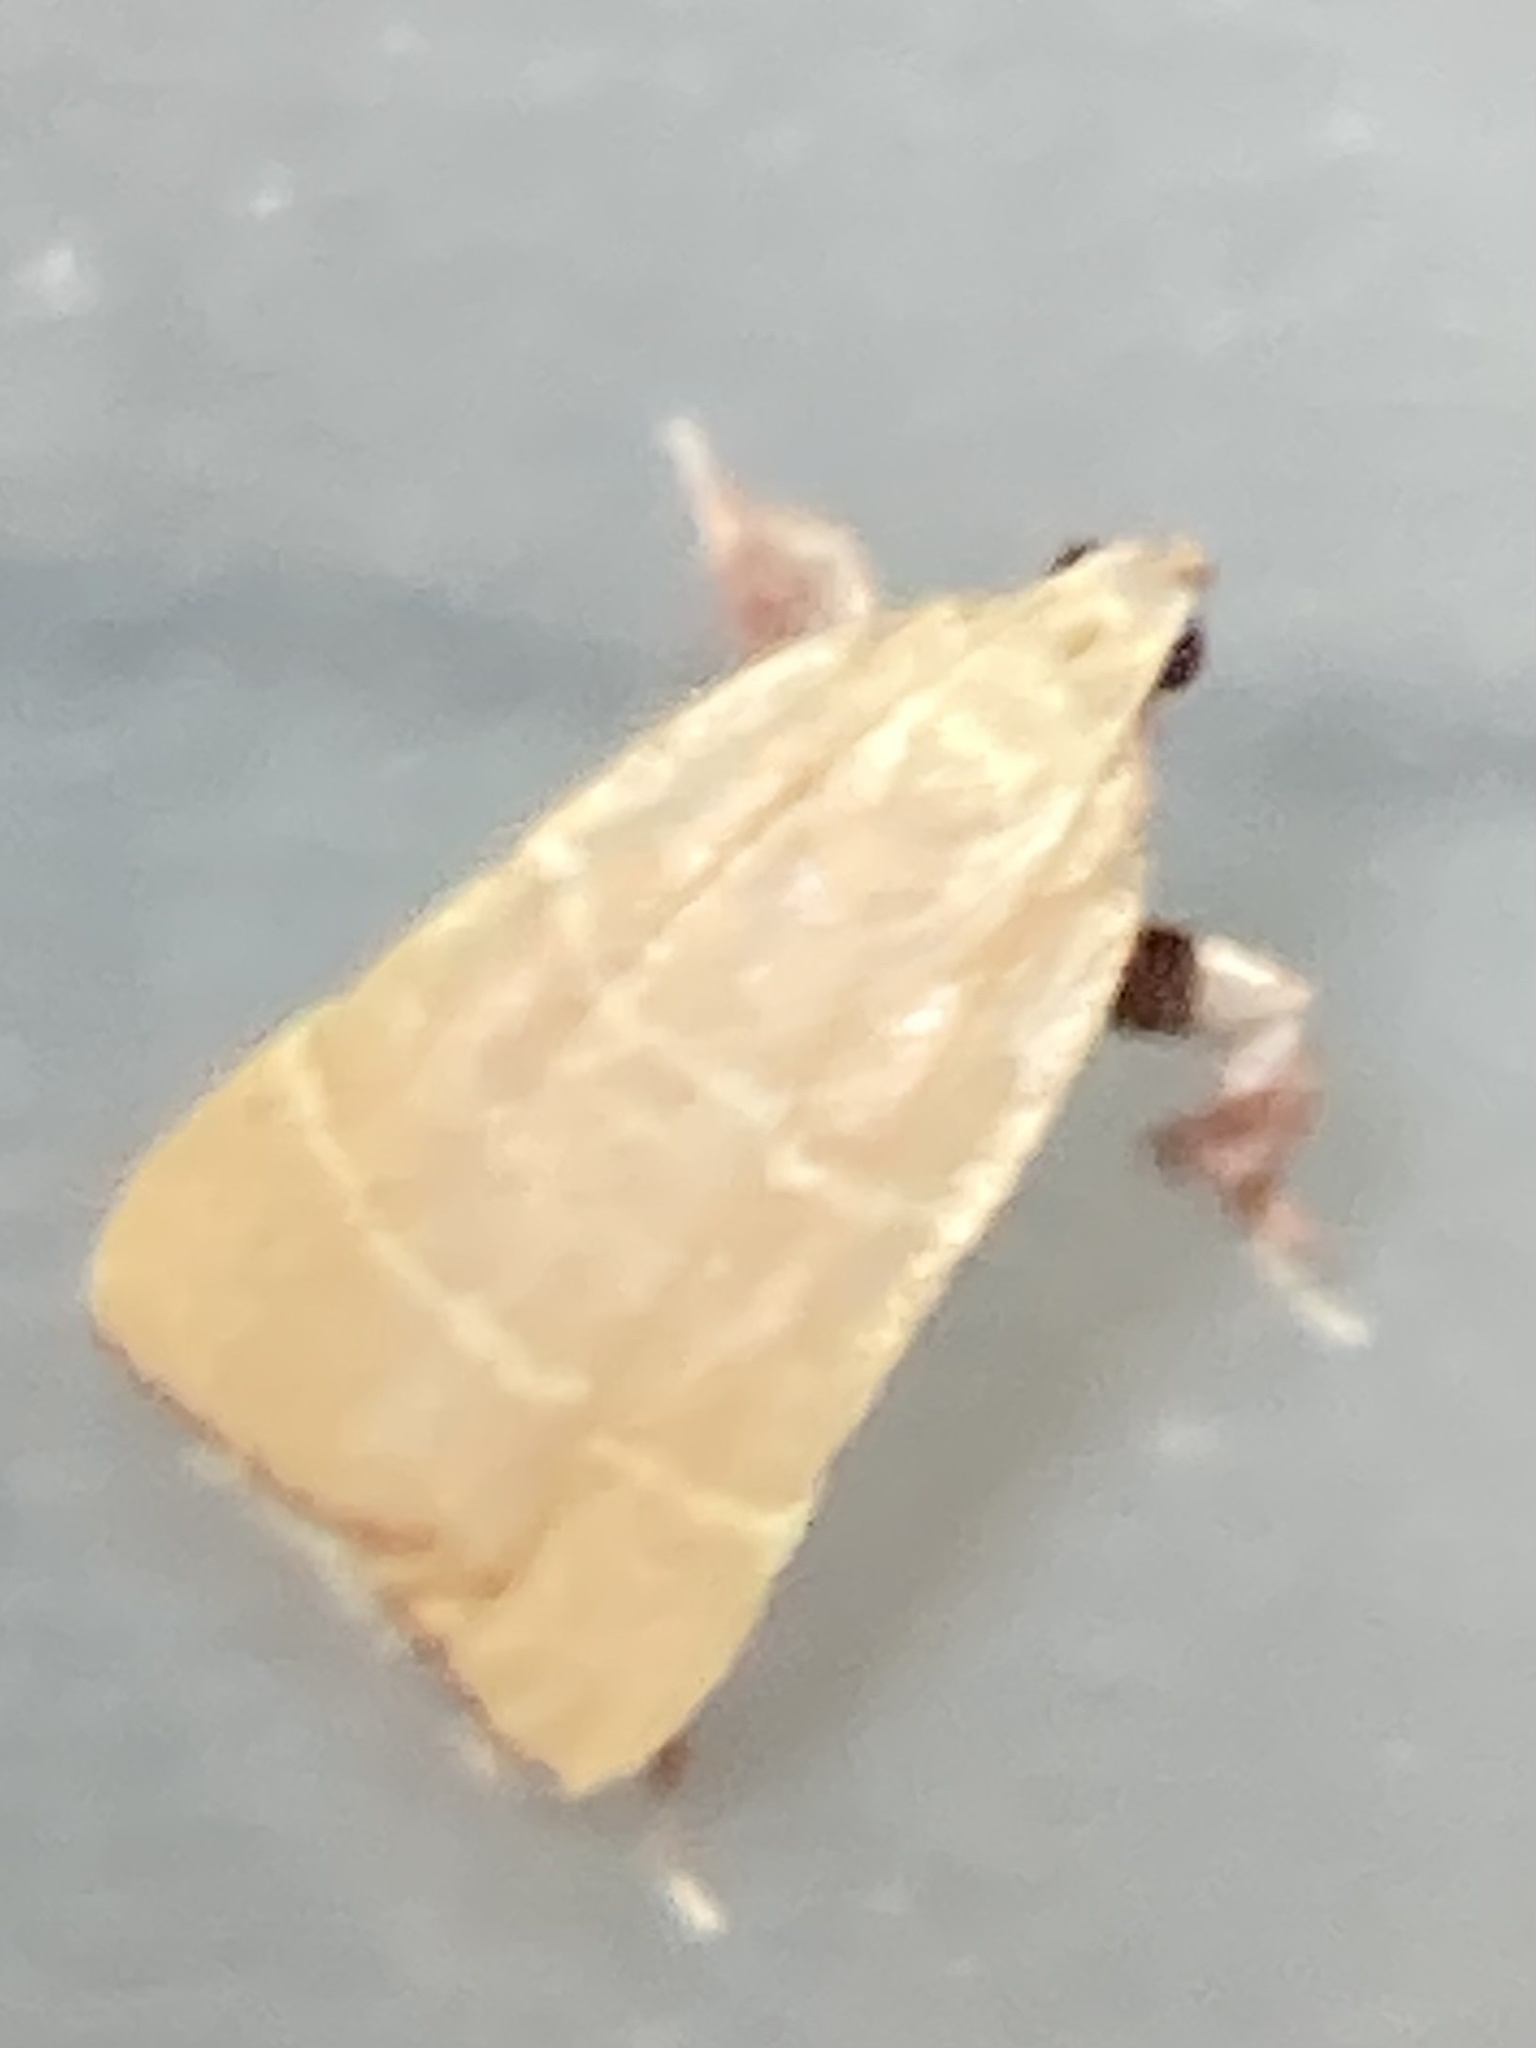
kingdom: Animalia
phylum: Arthropoda
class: Insecta
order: Lepidoptera
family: Pyralidae
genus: Parachma
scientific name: Parachma ochracealis
